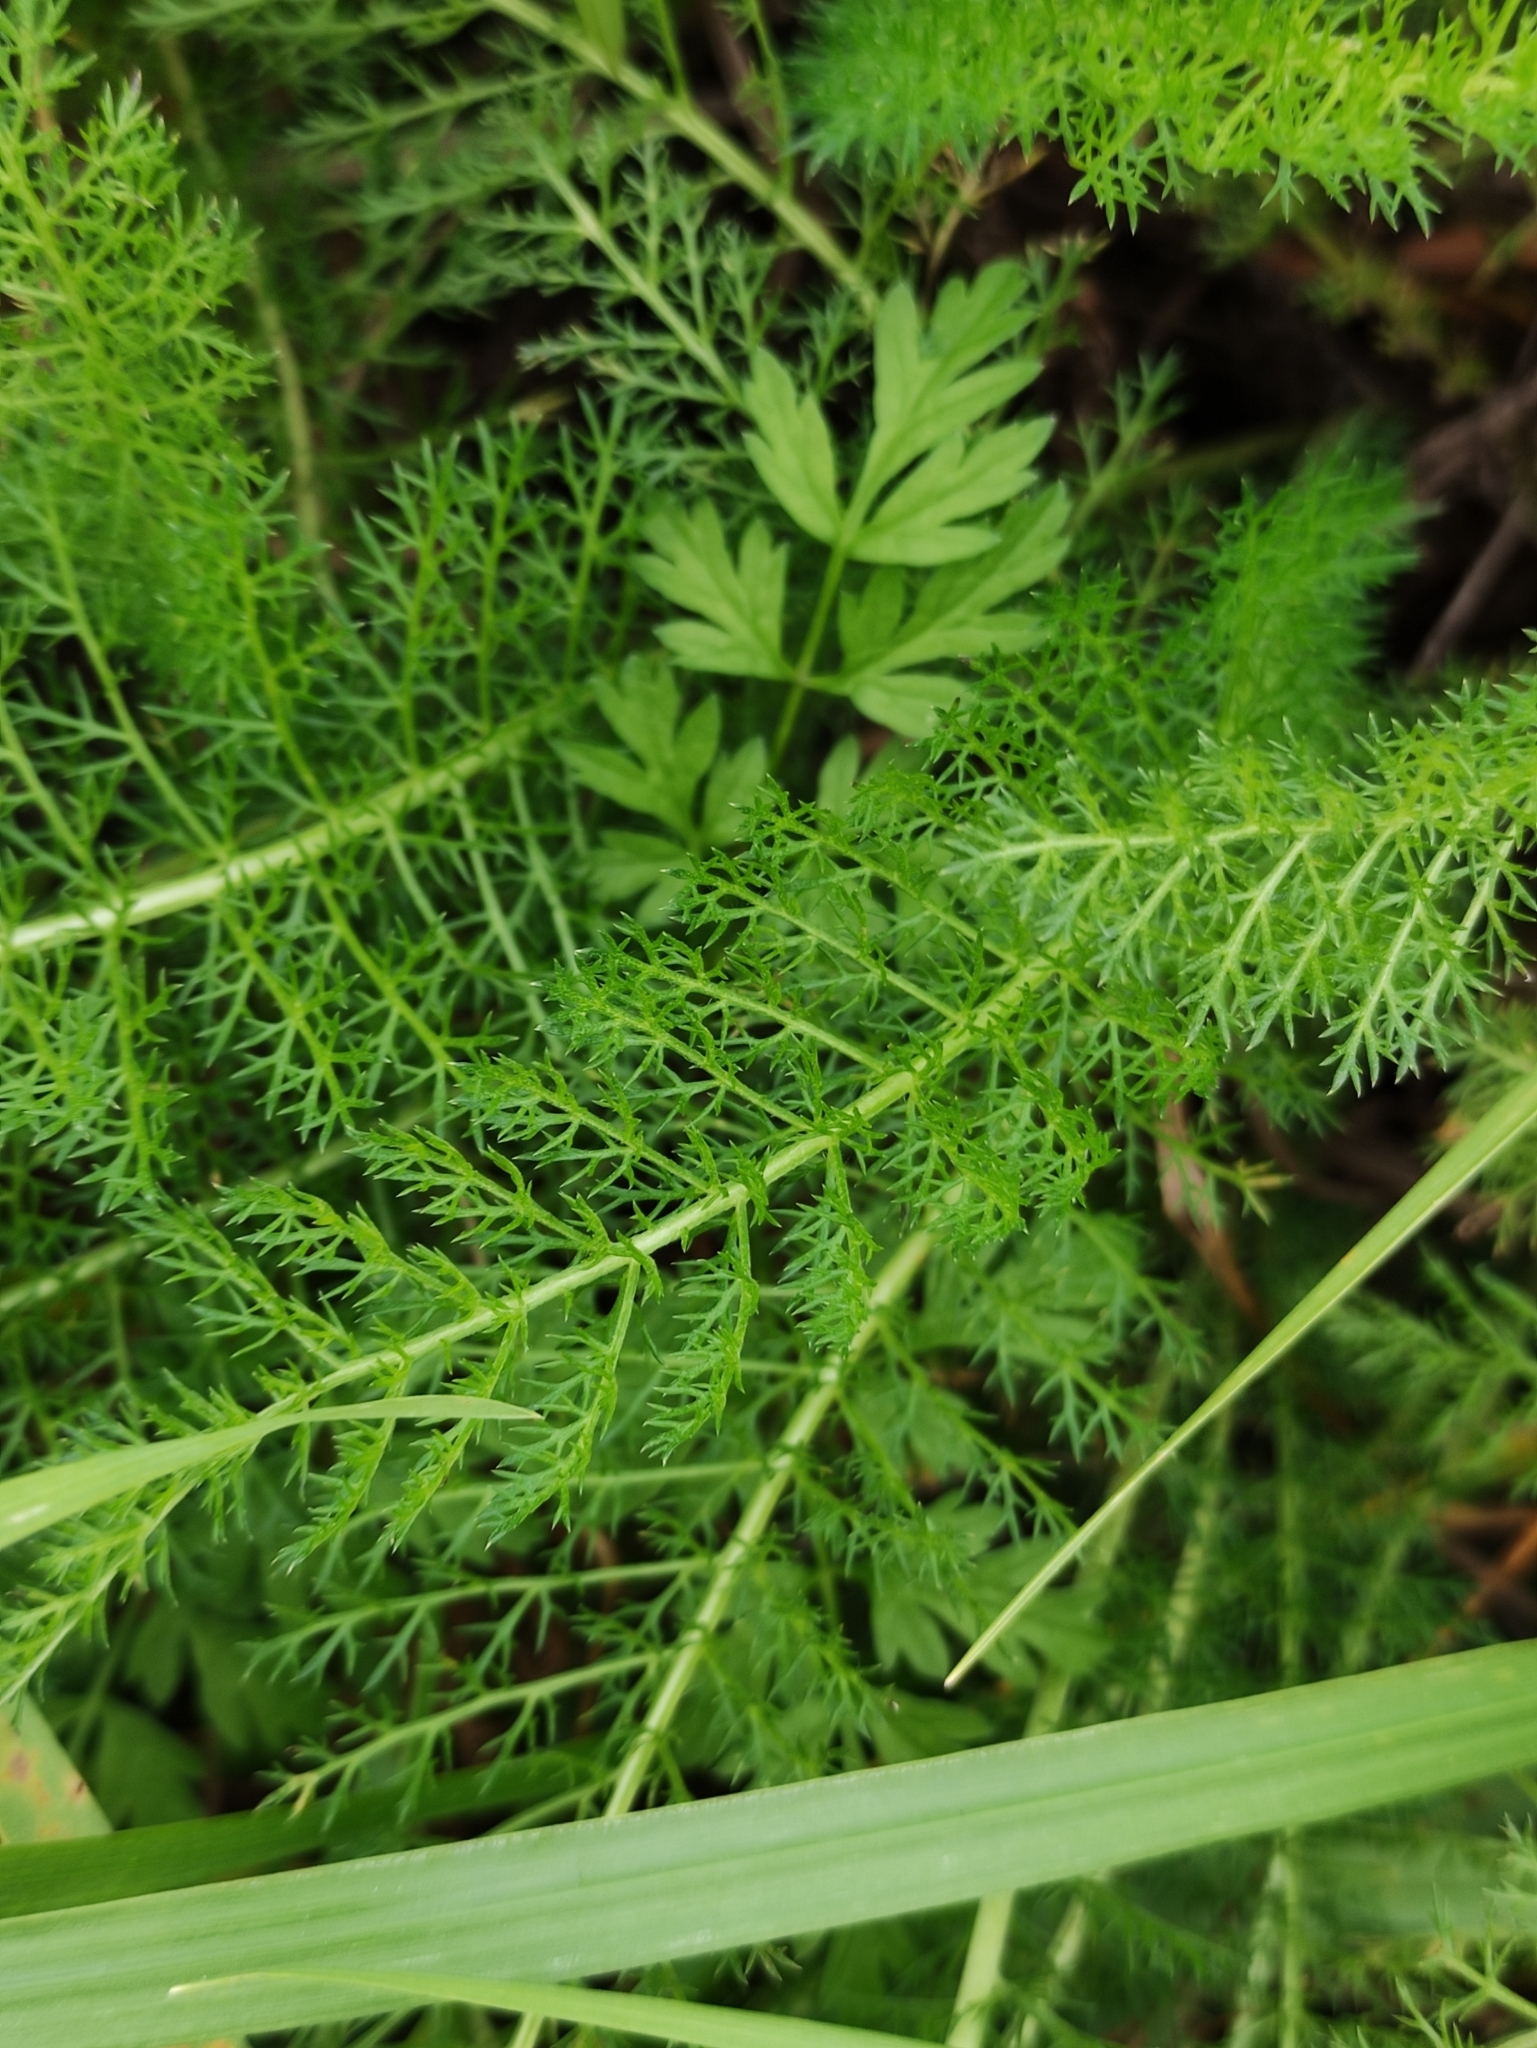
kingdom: Plantae
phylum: Tracheophyta
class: Magnoliopsida
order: Asterales
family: Asteraceae
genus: Achillea
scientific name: Achillea millefolium
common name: Yarrow
